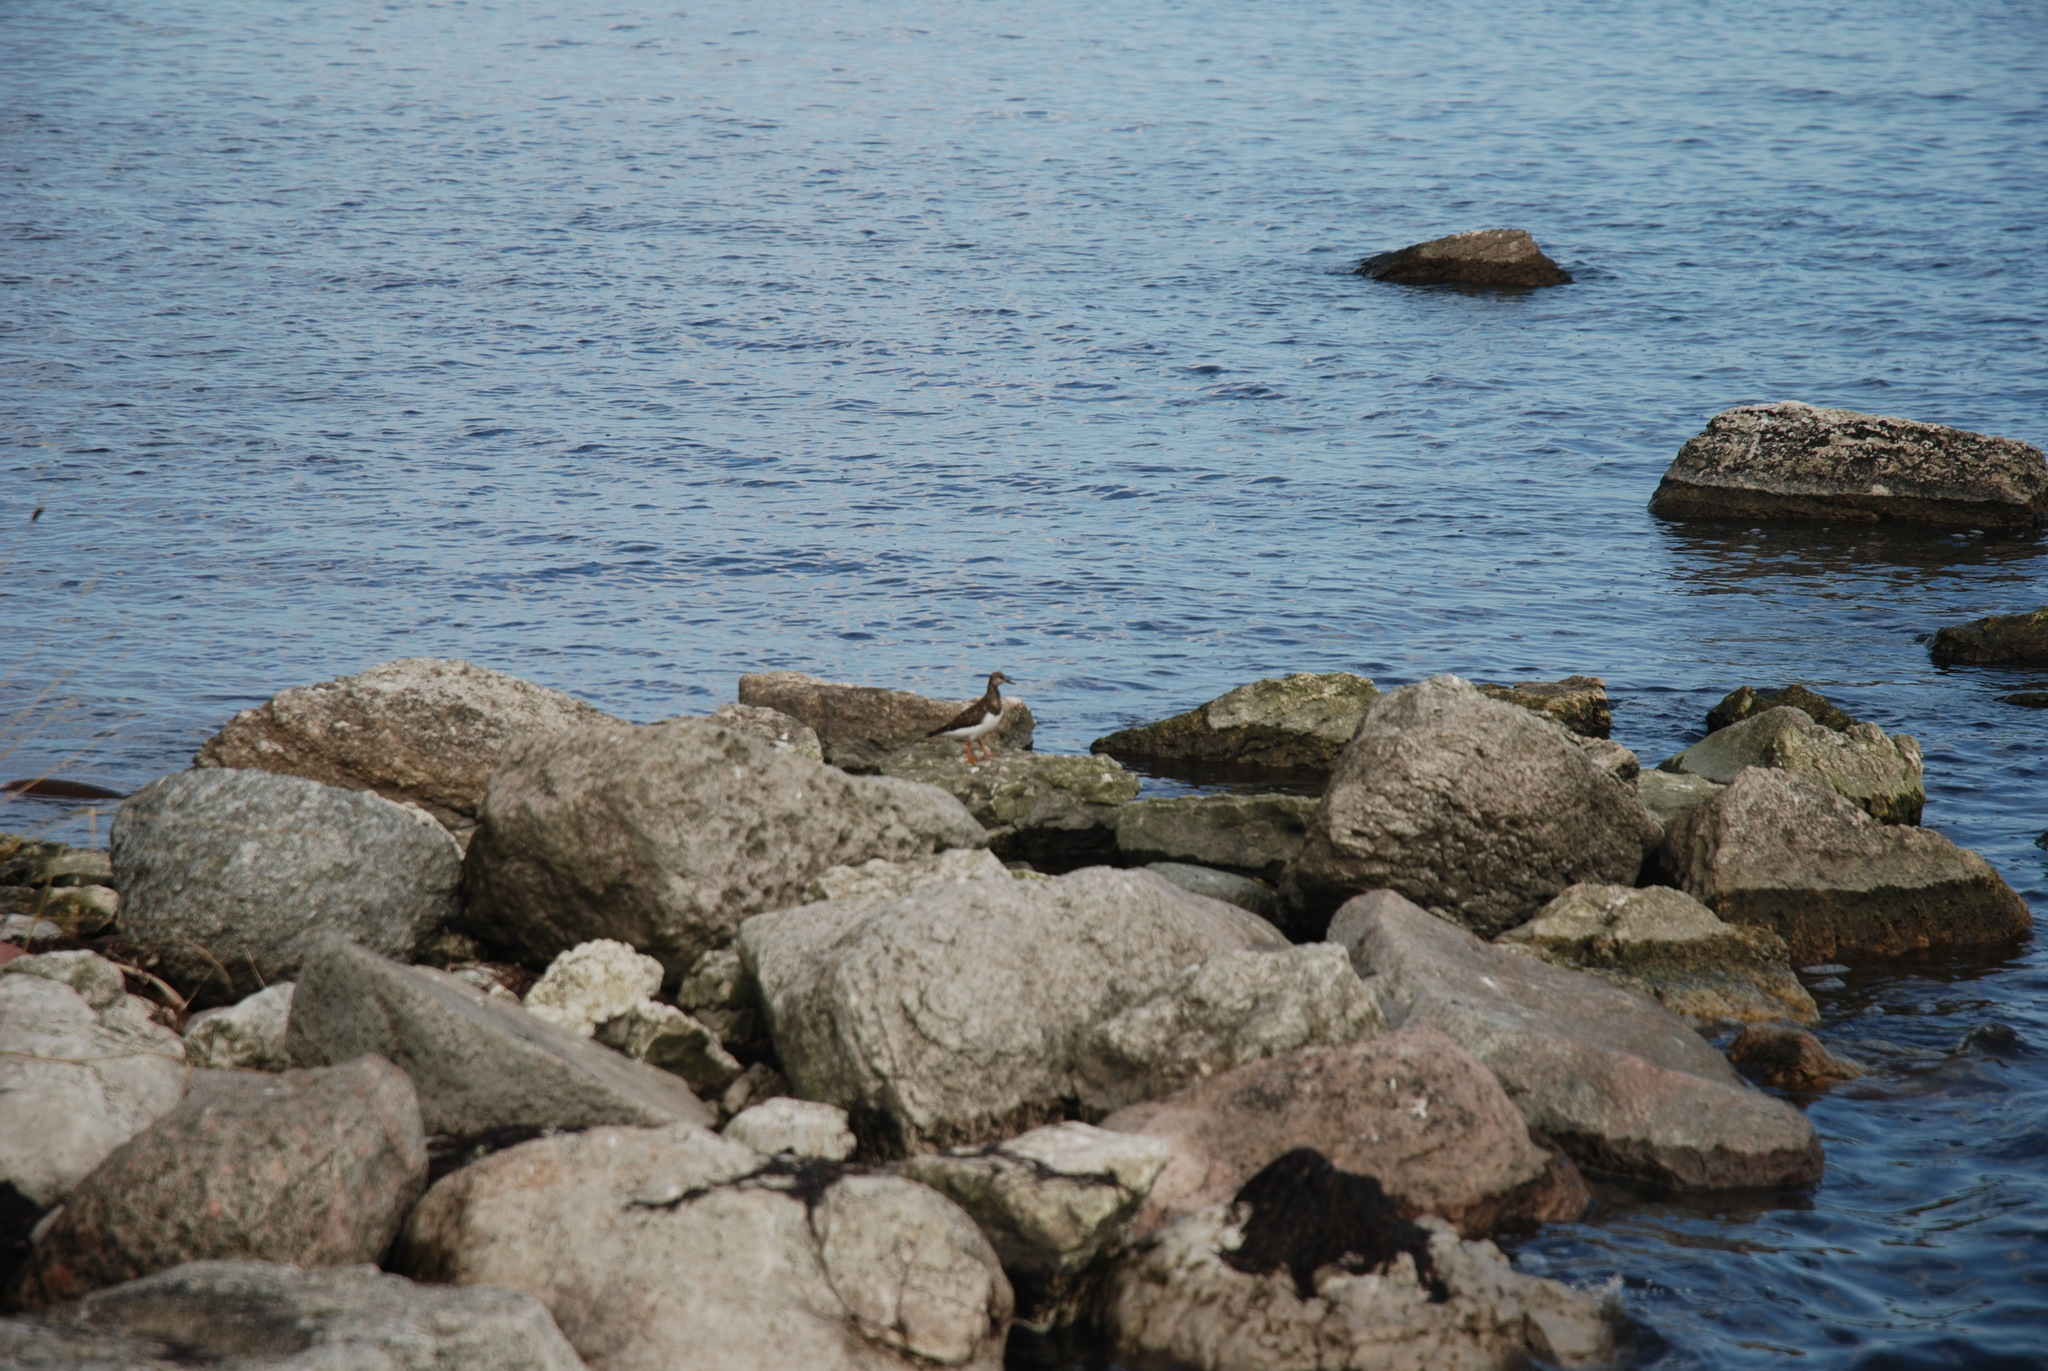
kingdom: Animalia
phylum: Chordata
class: Aves
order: Charadriiformes
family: Scolopacidae
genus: Arenaria
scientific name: Arenaria interpres
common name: Ruddy turnstone
